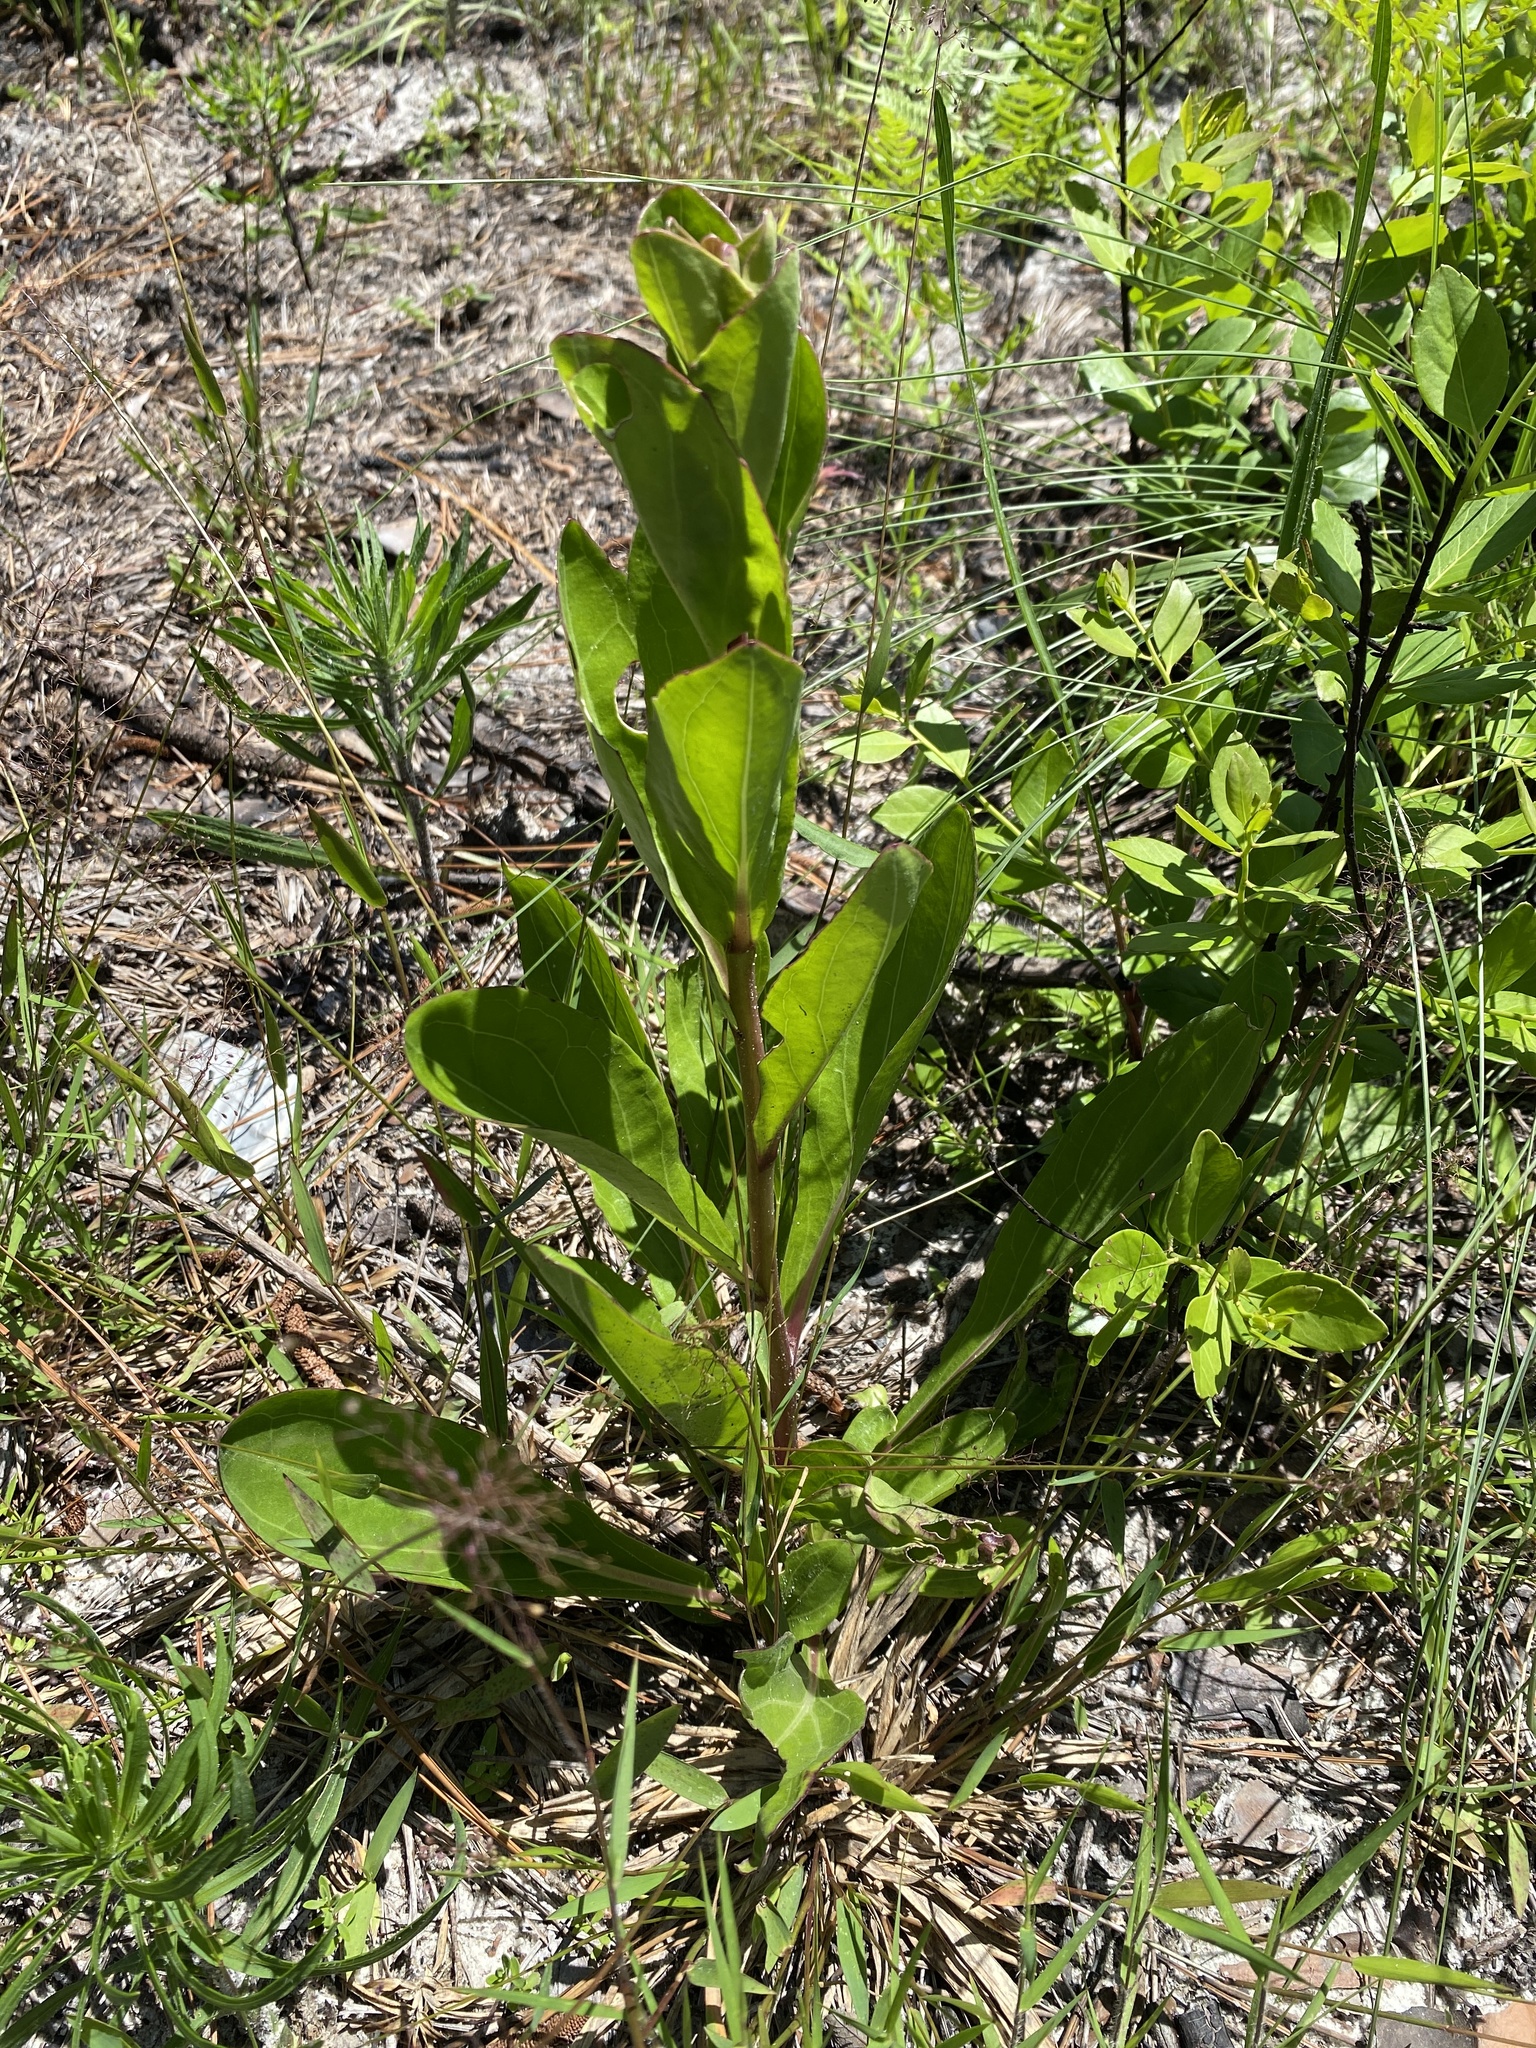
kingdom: Plantae
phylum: Tracheophyta
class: Magnoliopsida
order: Asterales
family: Asteraceae
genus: Carphephorus
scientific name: Carphephorus odoratissimus
